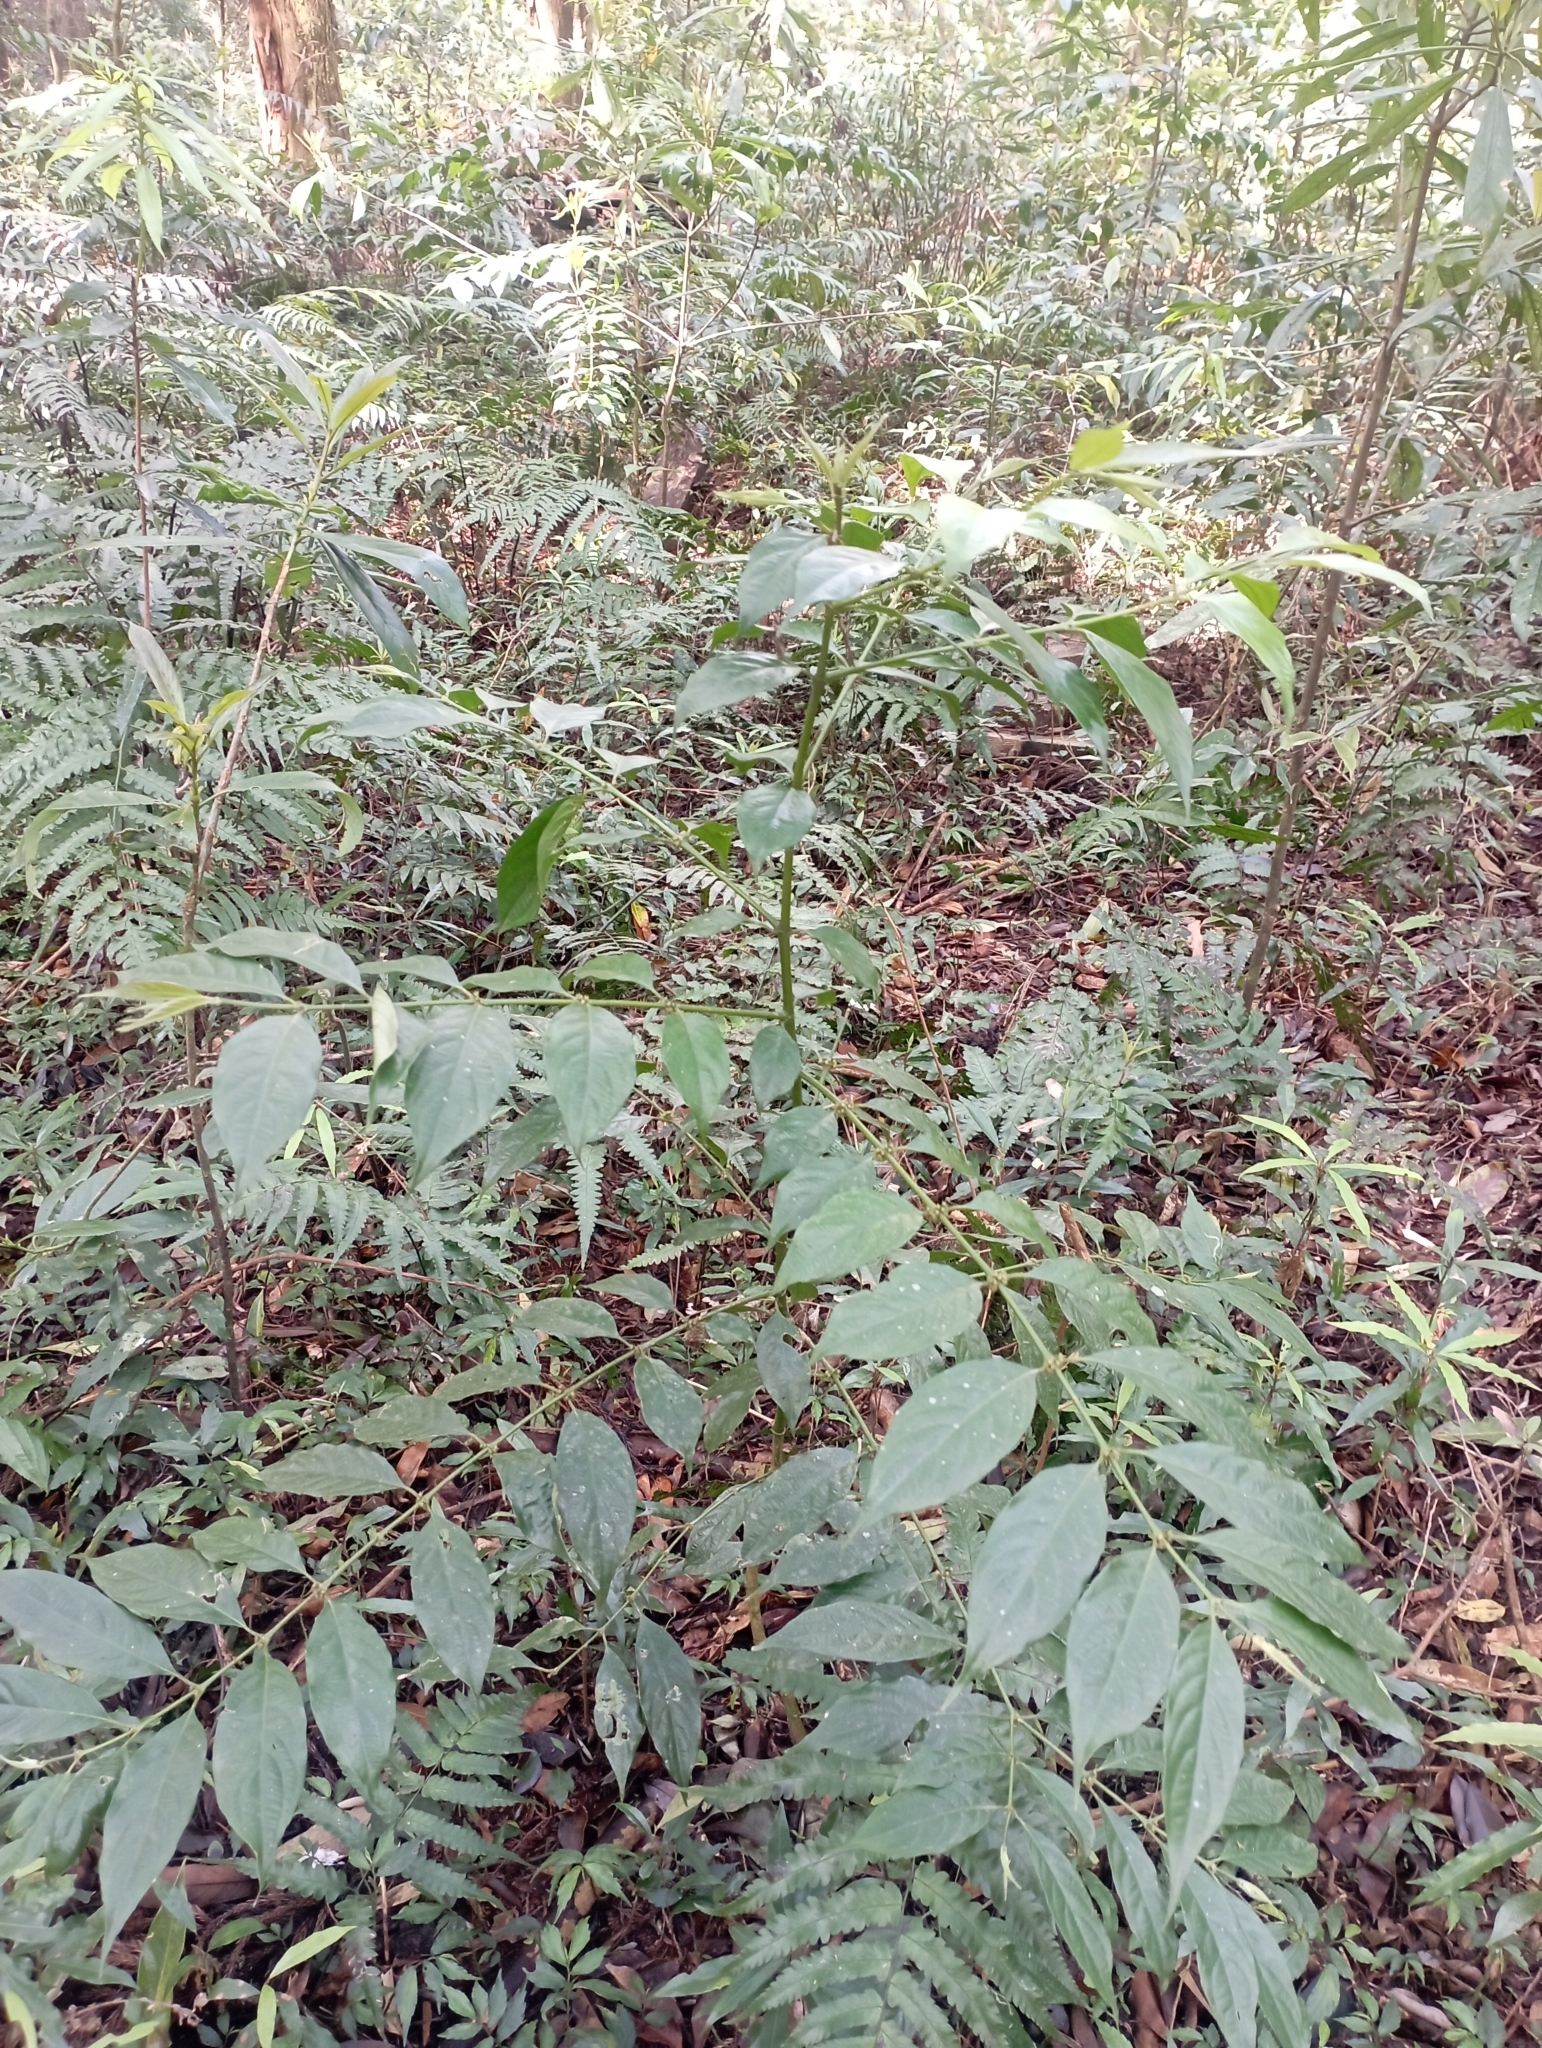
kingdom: Plantae
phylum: Tracheophyta
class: Magnoliopsida
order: Gentianales
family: Rubiaceae
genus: Lasianthus
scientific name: Lasianthus fordii
